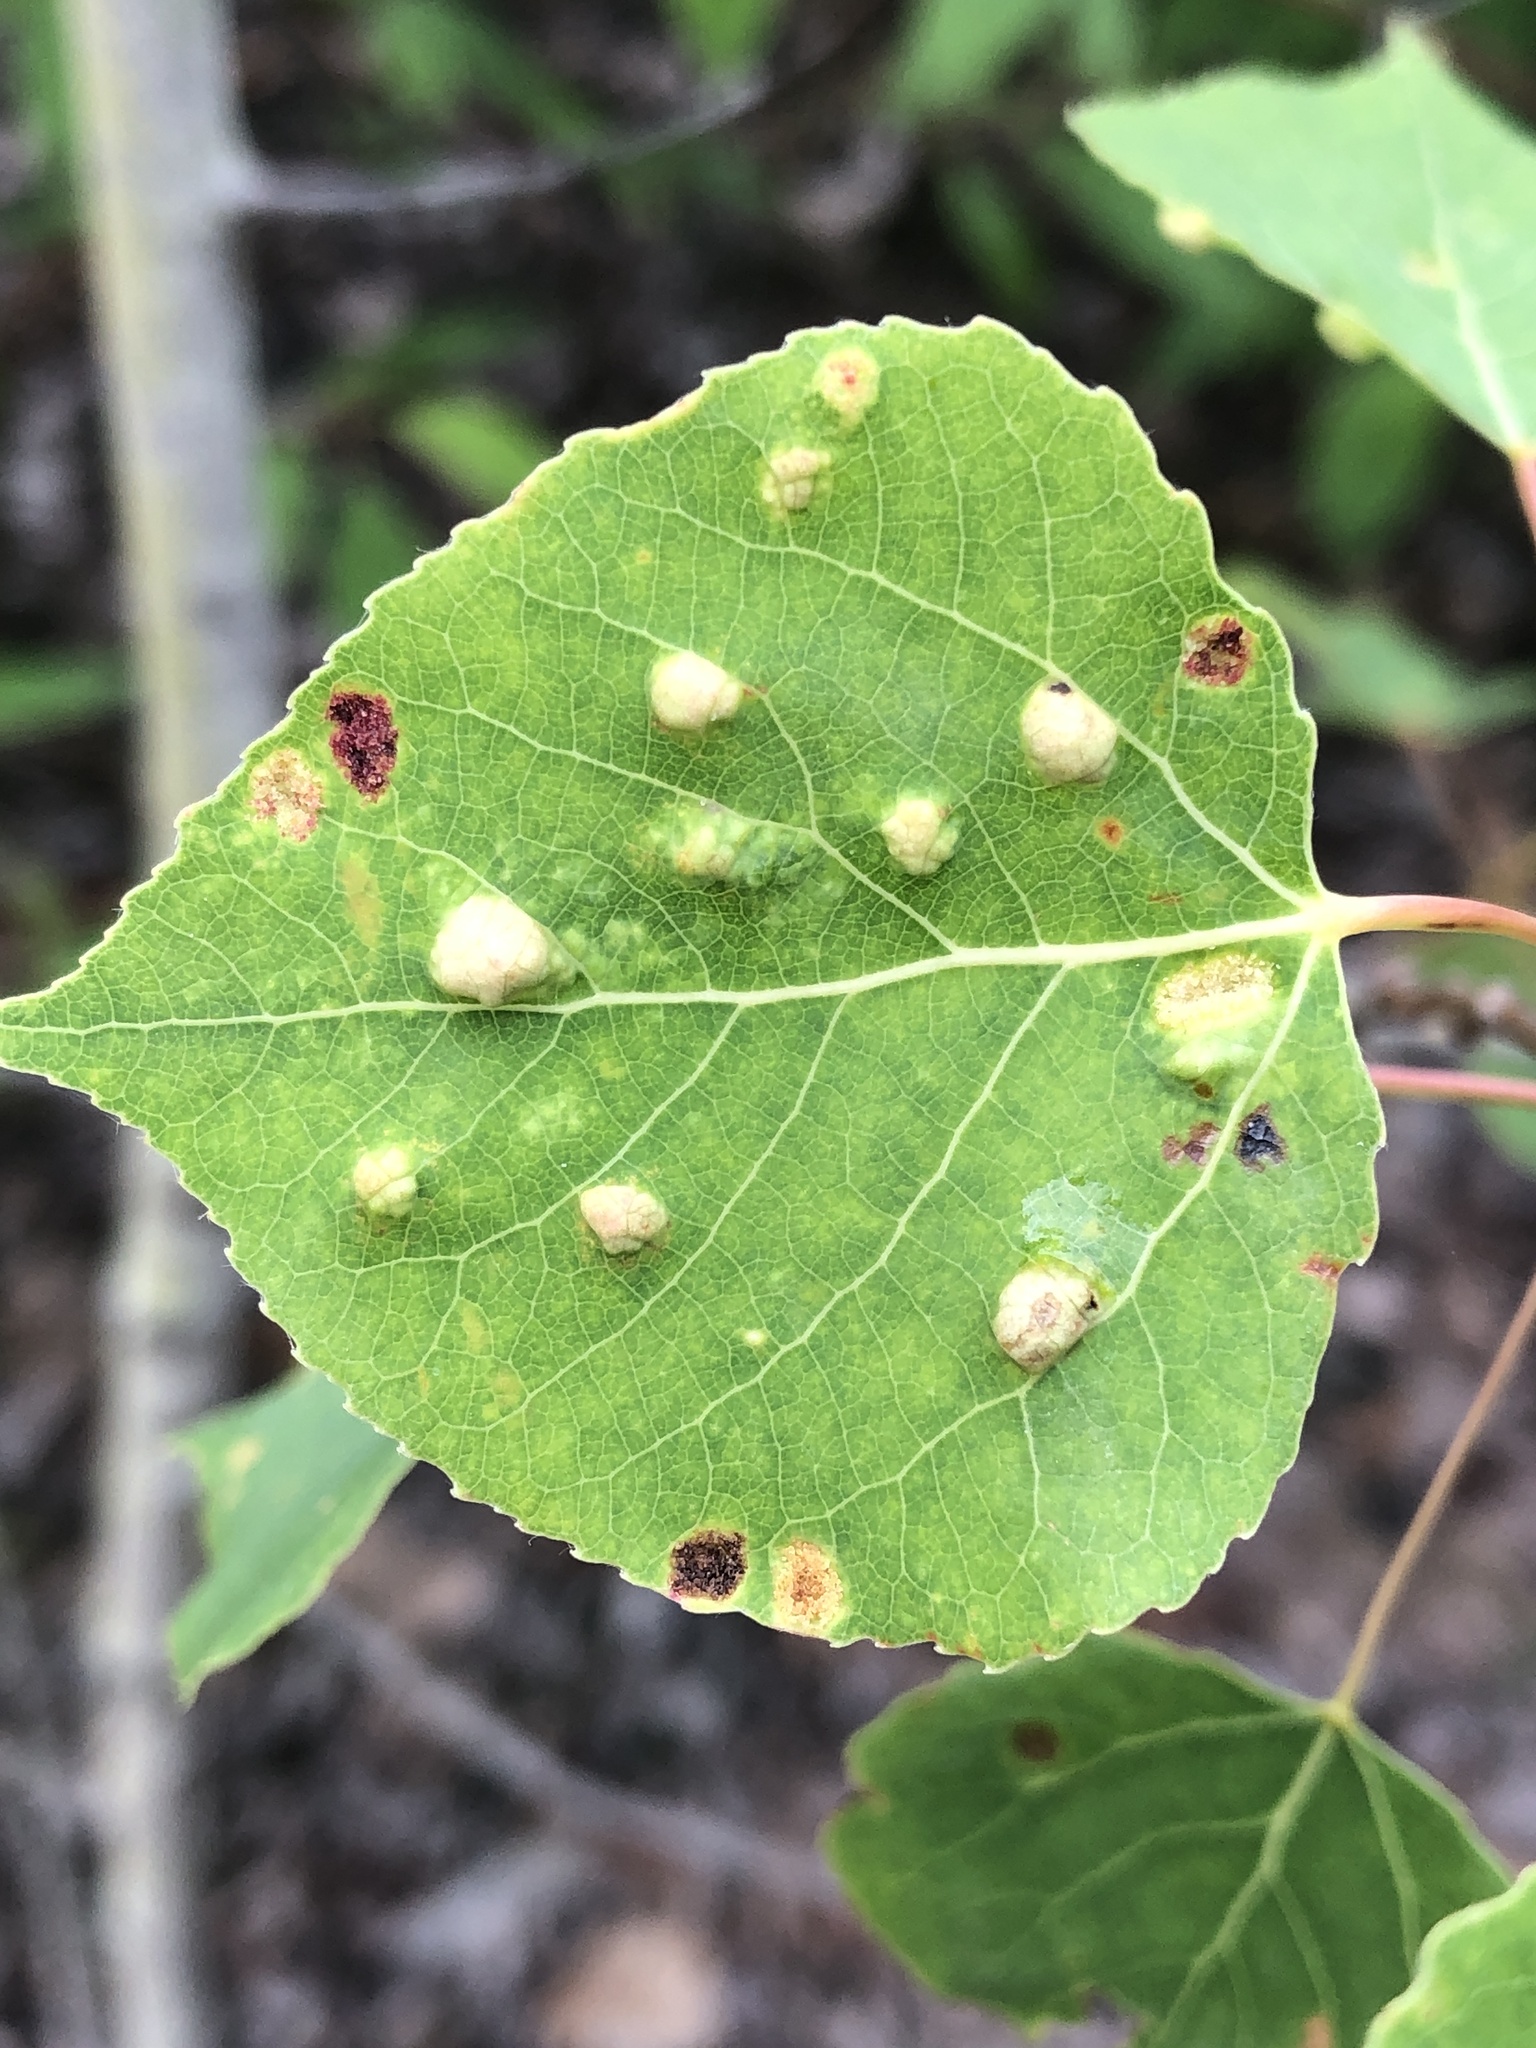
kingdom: Animalia
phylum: Arthropoda
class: Arachnida
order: Trombidiformes
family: Eriophyidae
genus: Phyllocoptes
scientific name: Phyllocoptes
